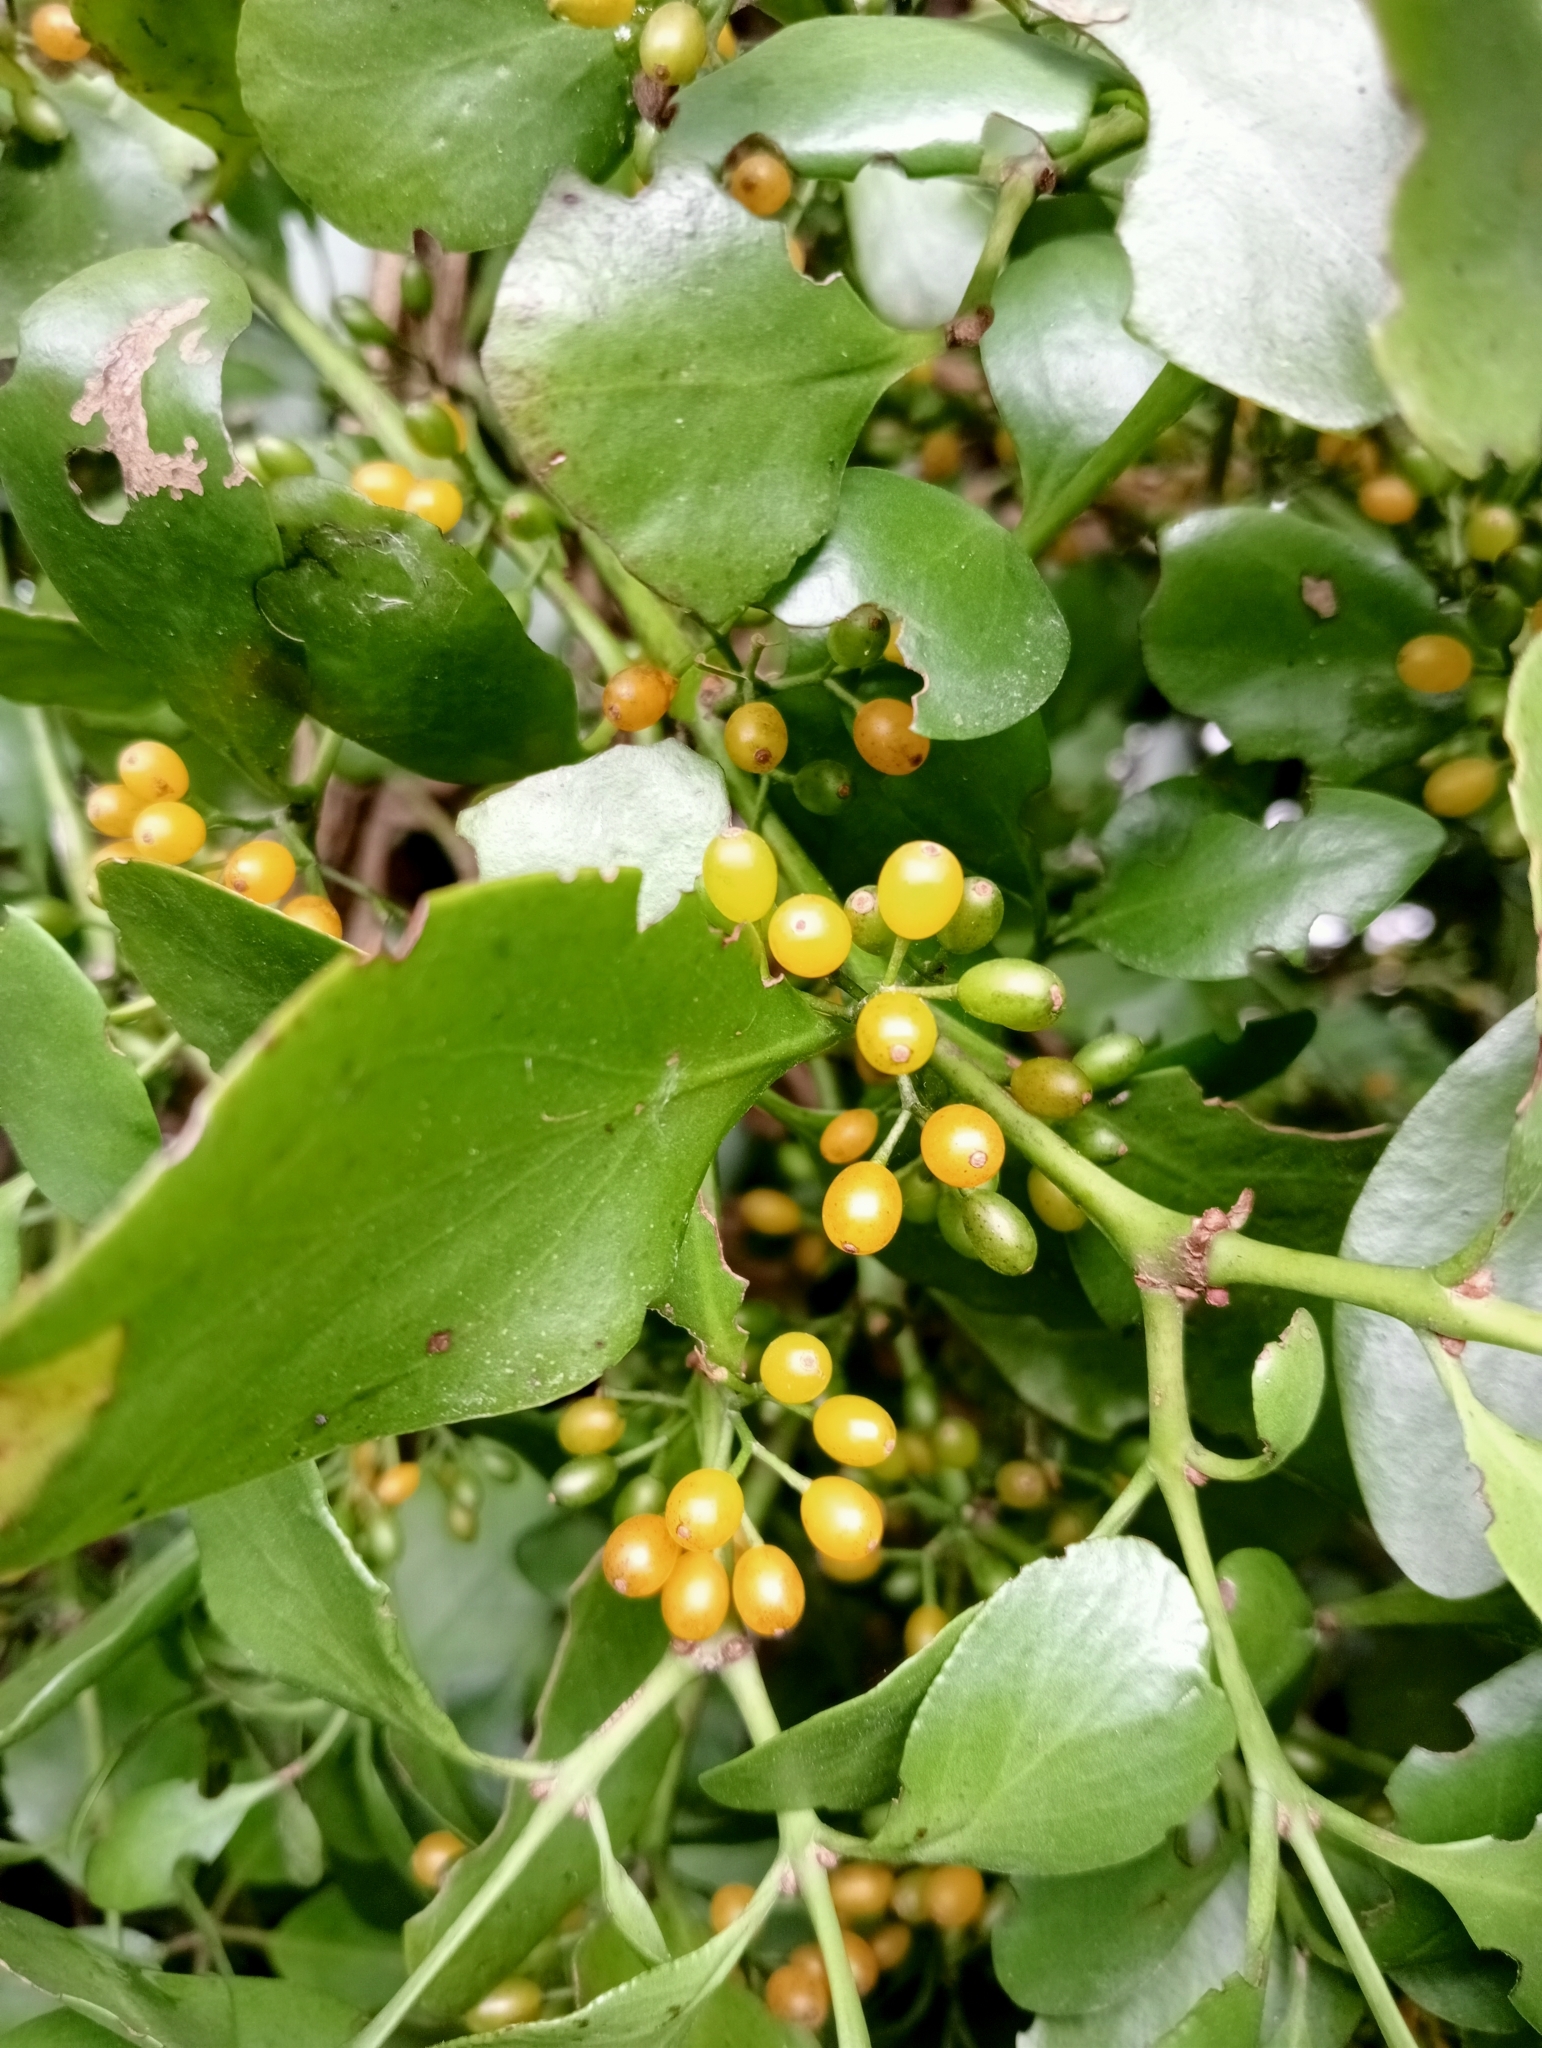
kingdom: Plantae
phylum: Tracheophyta
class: Magnoliopsida
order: Santalales
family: Loranthaceae
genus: Ileostylus
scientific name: Ileostylus micranthus
